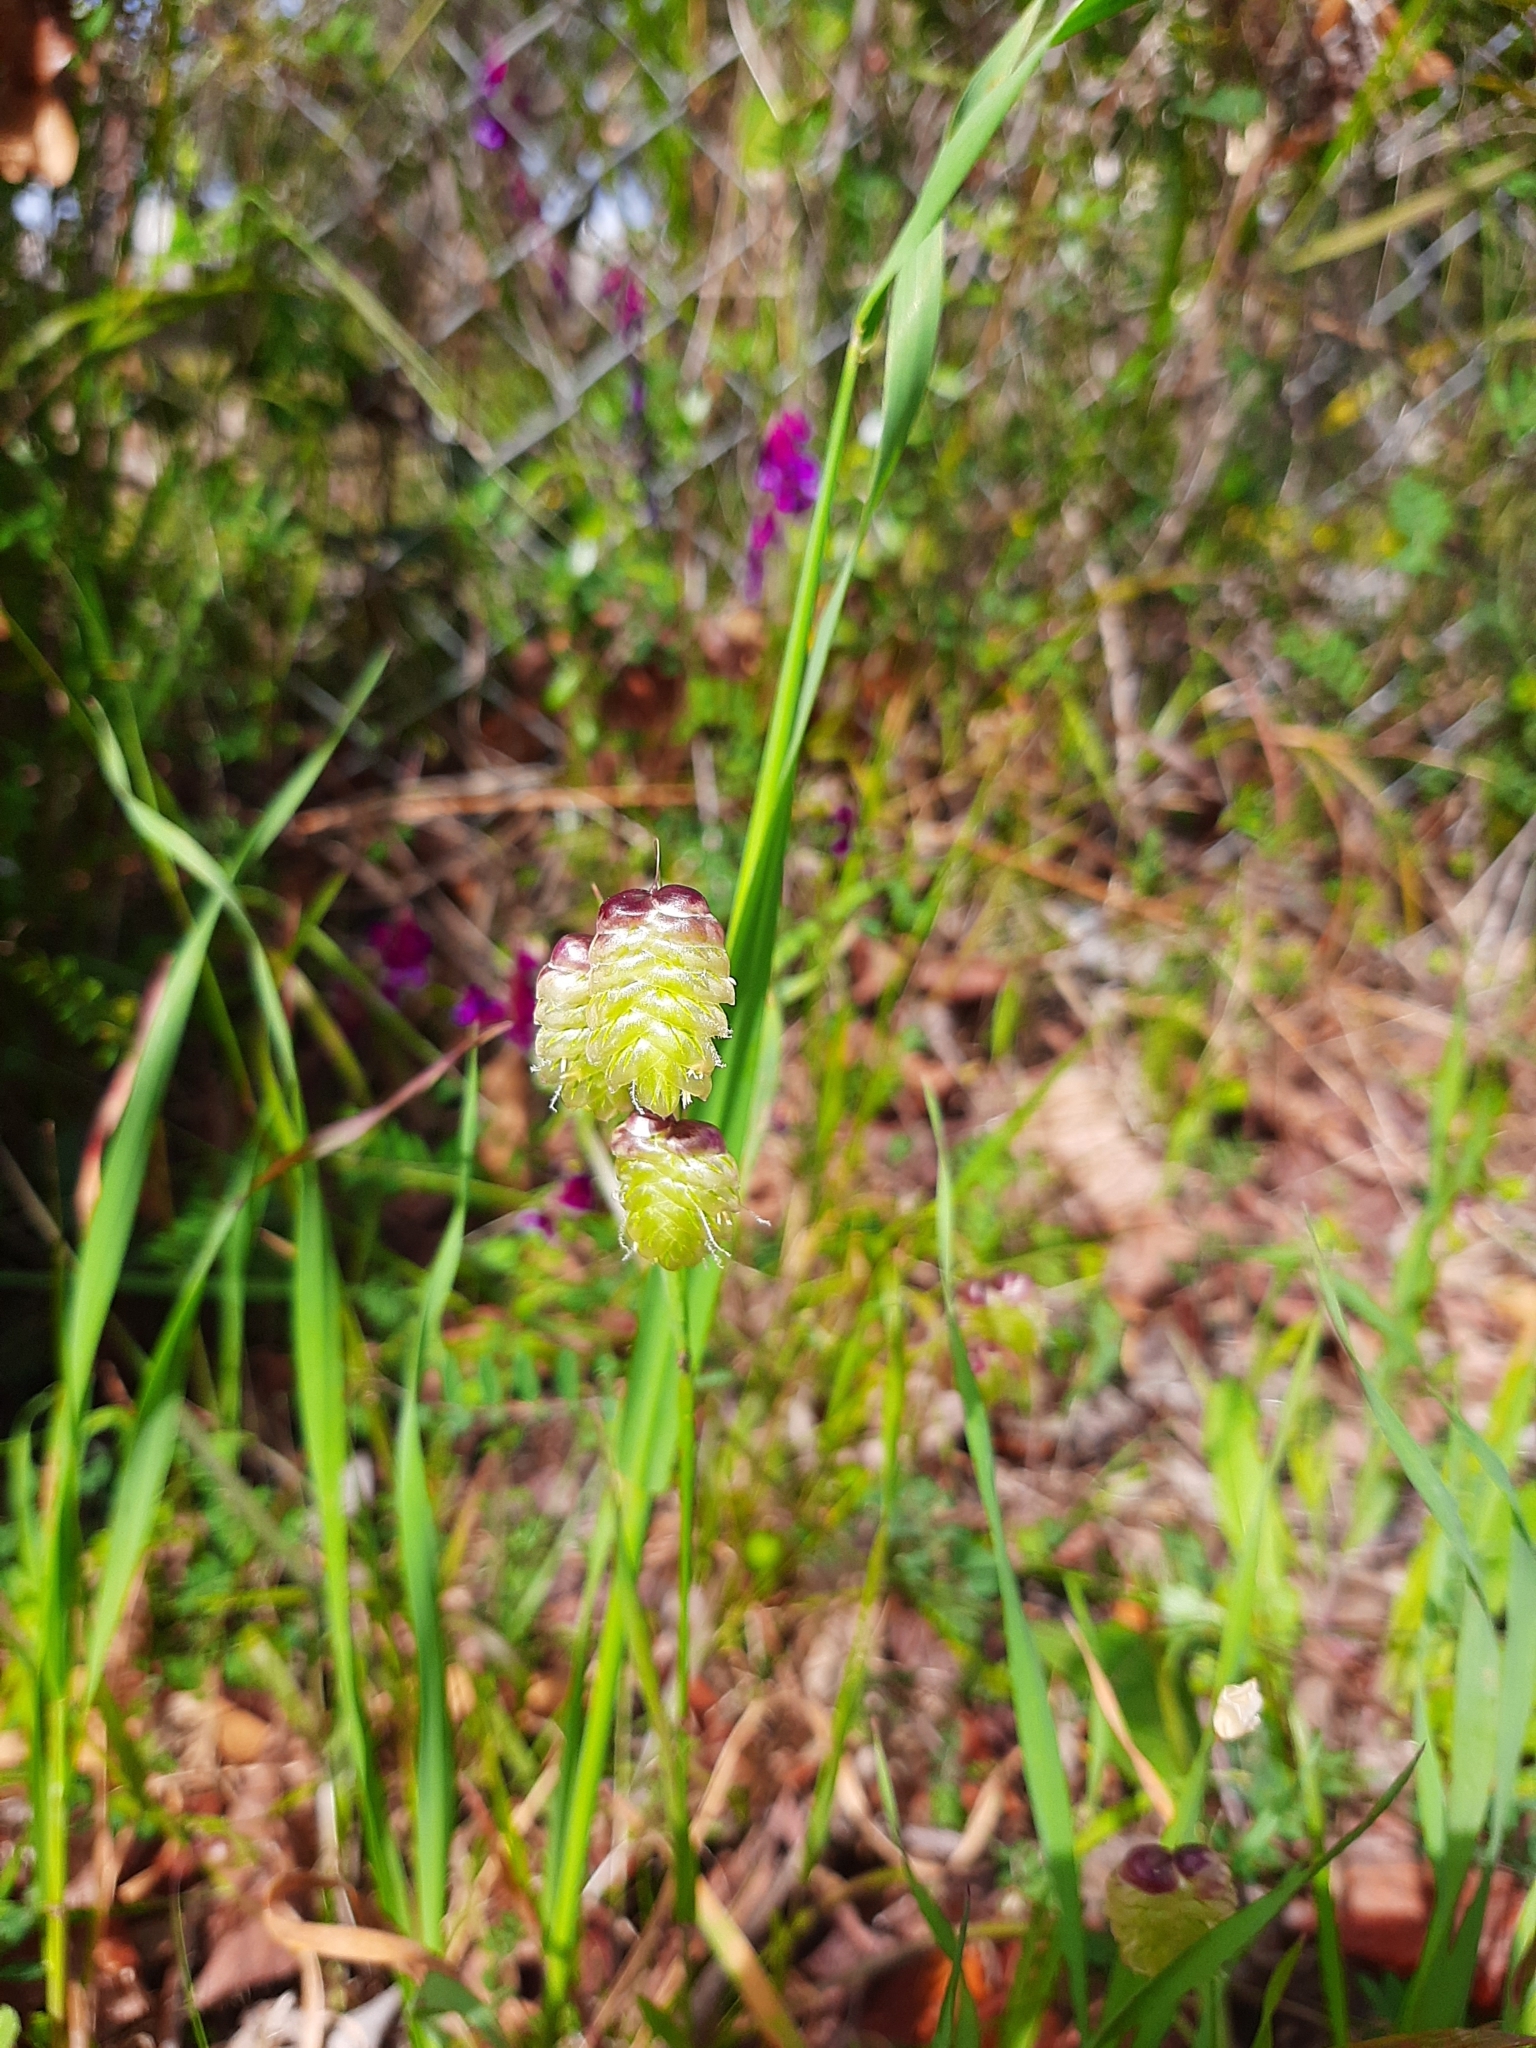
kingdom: Plantae
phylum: Tracheophyta
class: Liliopsida
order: Poales
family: Poaceae
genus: Briza
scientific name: Briza maxima
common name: Big quakinggrass
